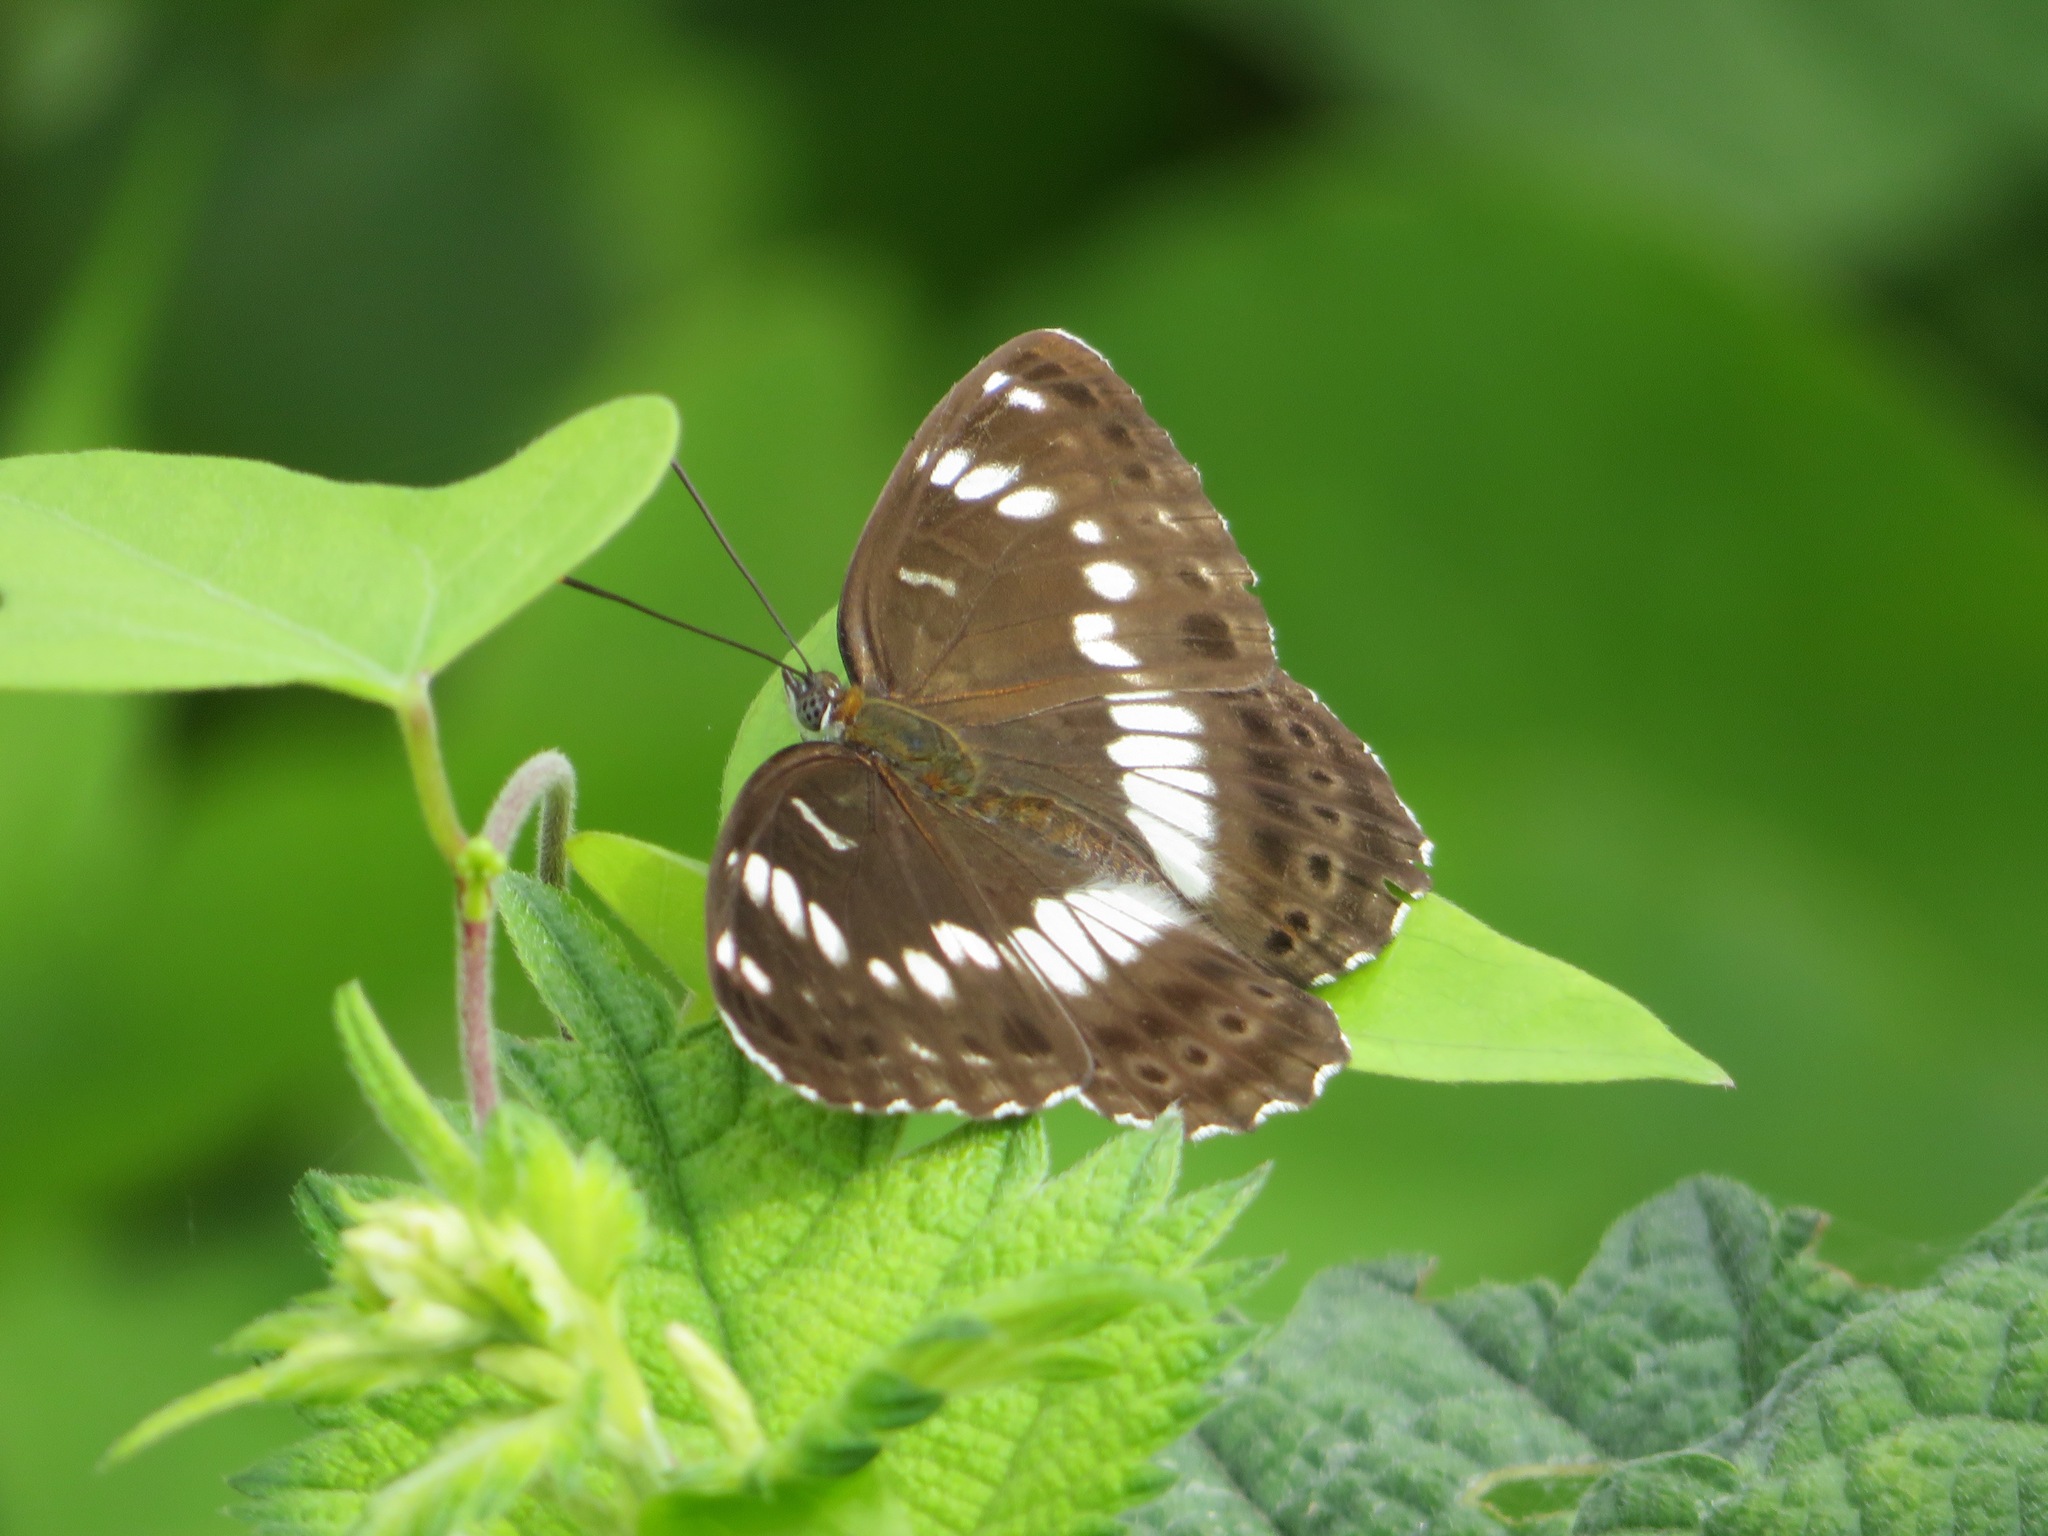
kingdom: Animalia
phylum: Arthropoda
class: Insecta
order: Lepidoptera
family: Nymphalidae
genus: Ladoga
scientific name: Ladoga camilla
